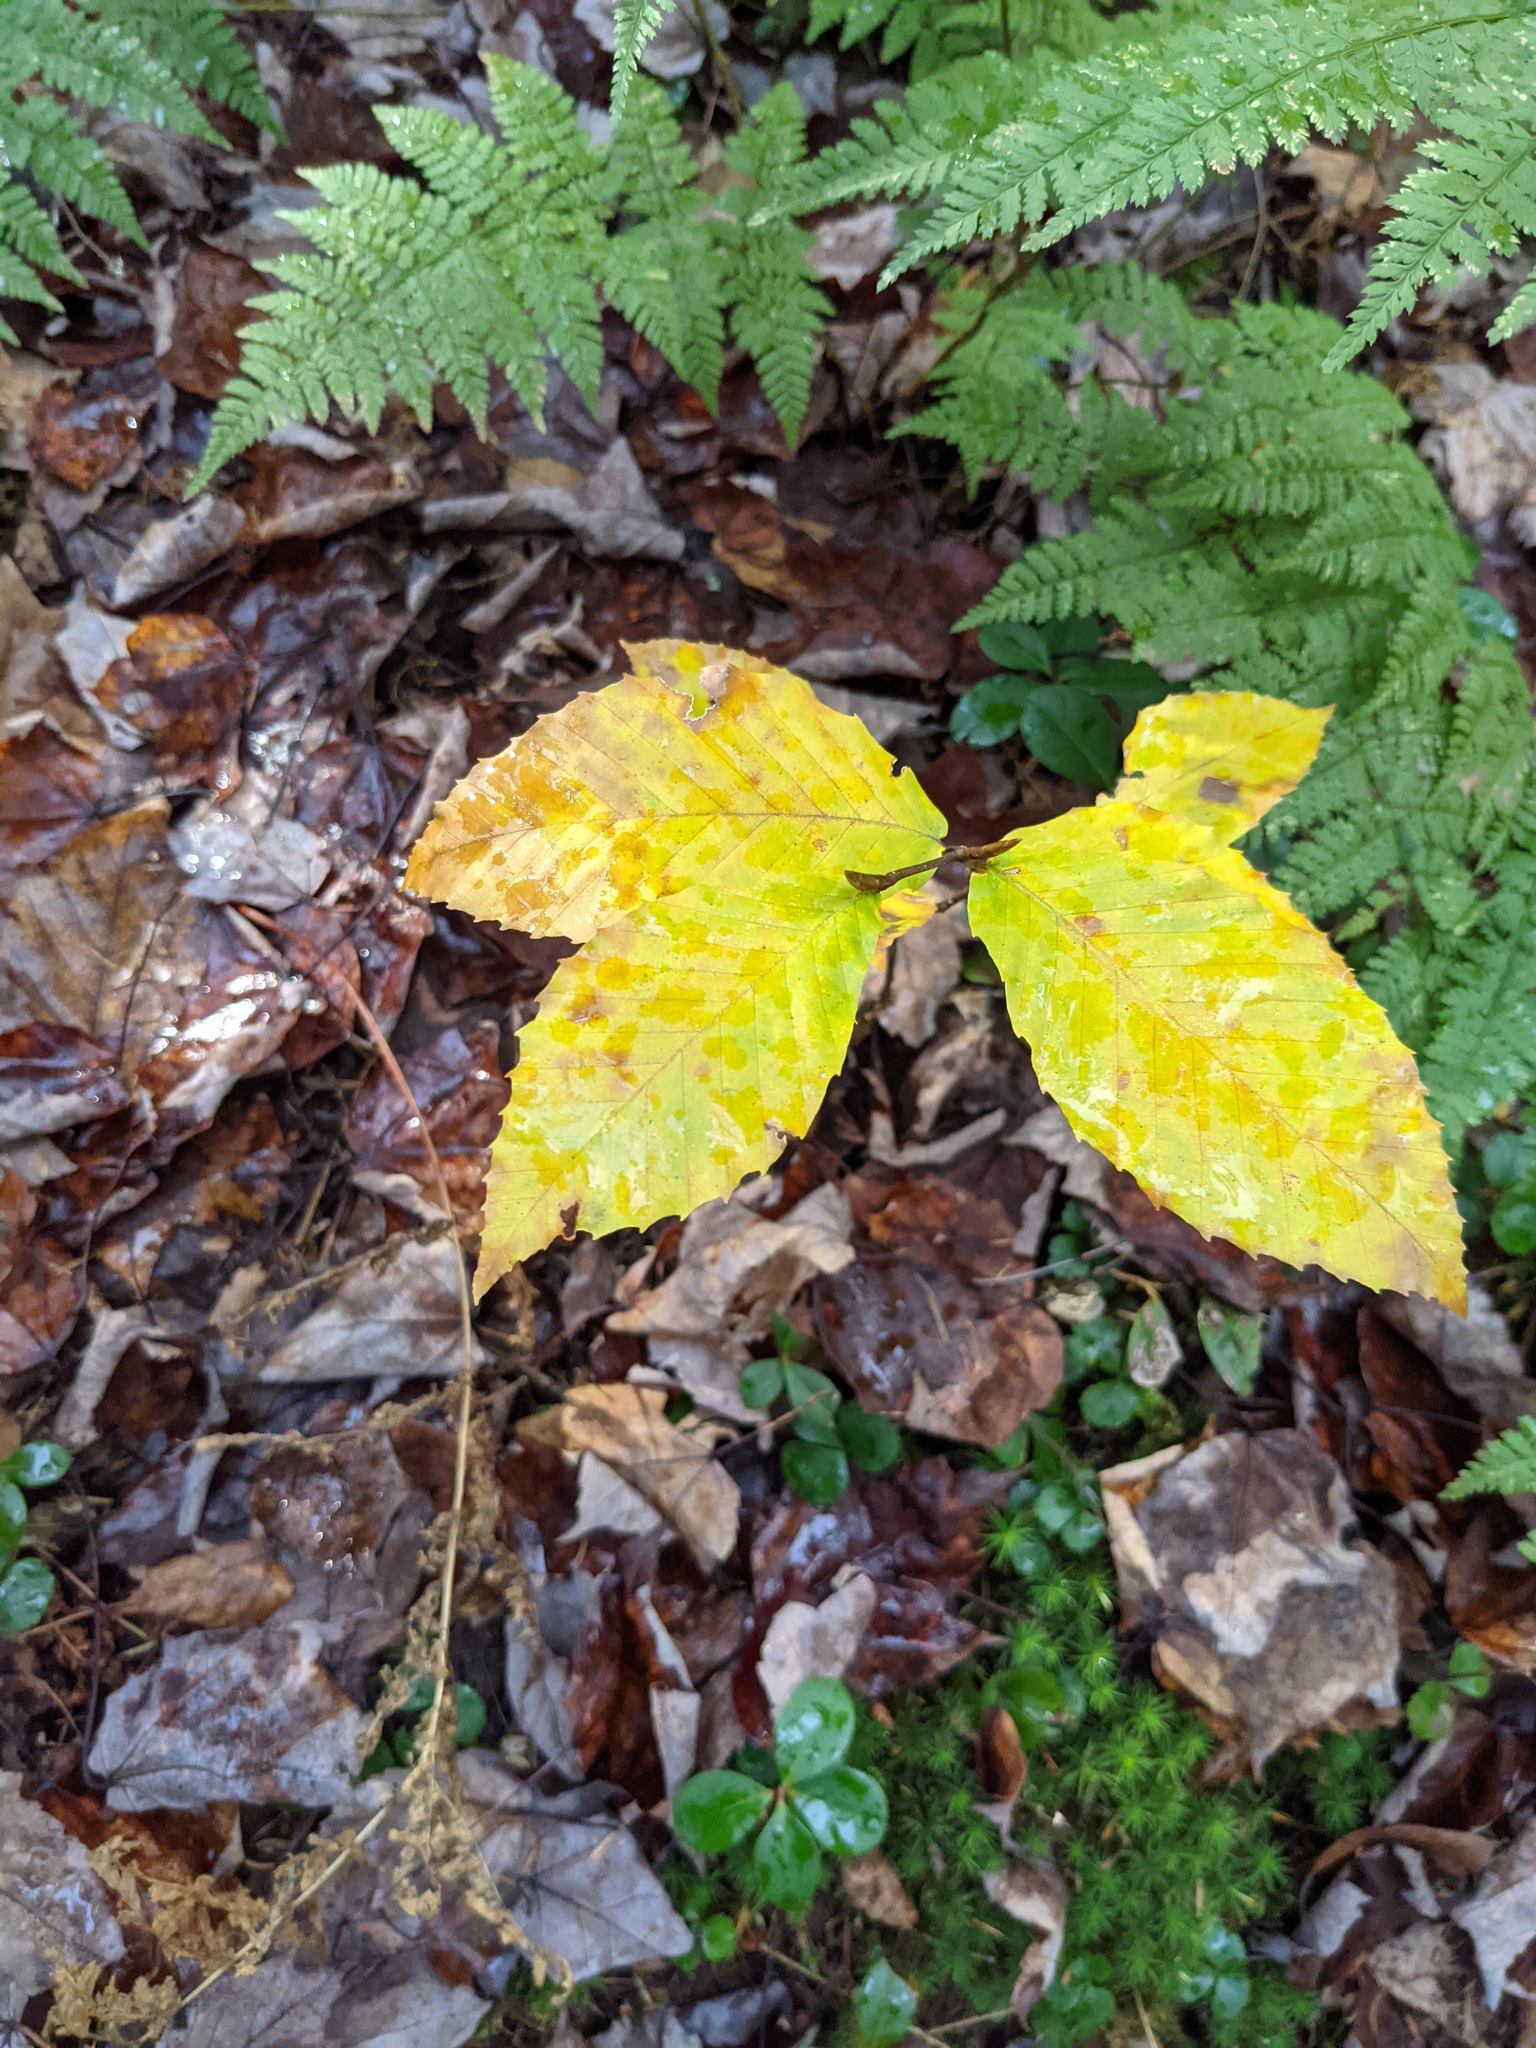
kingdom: Plantae
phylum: Tracheophyta
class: Magnoliopsida
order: Fagales
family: Fagaceae
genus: Fagus
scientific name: Fagus grandifolia
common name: American beech
